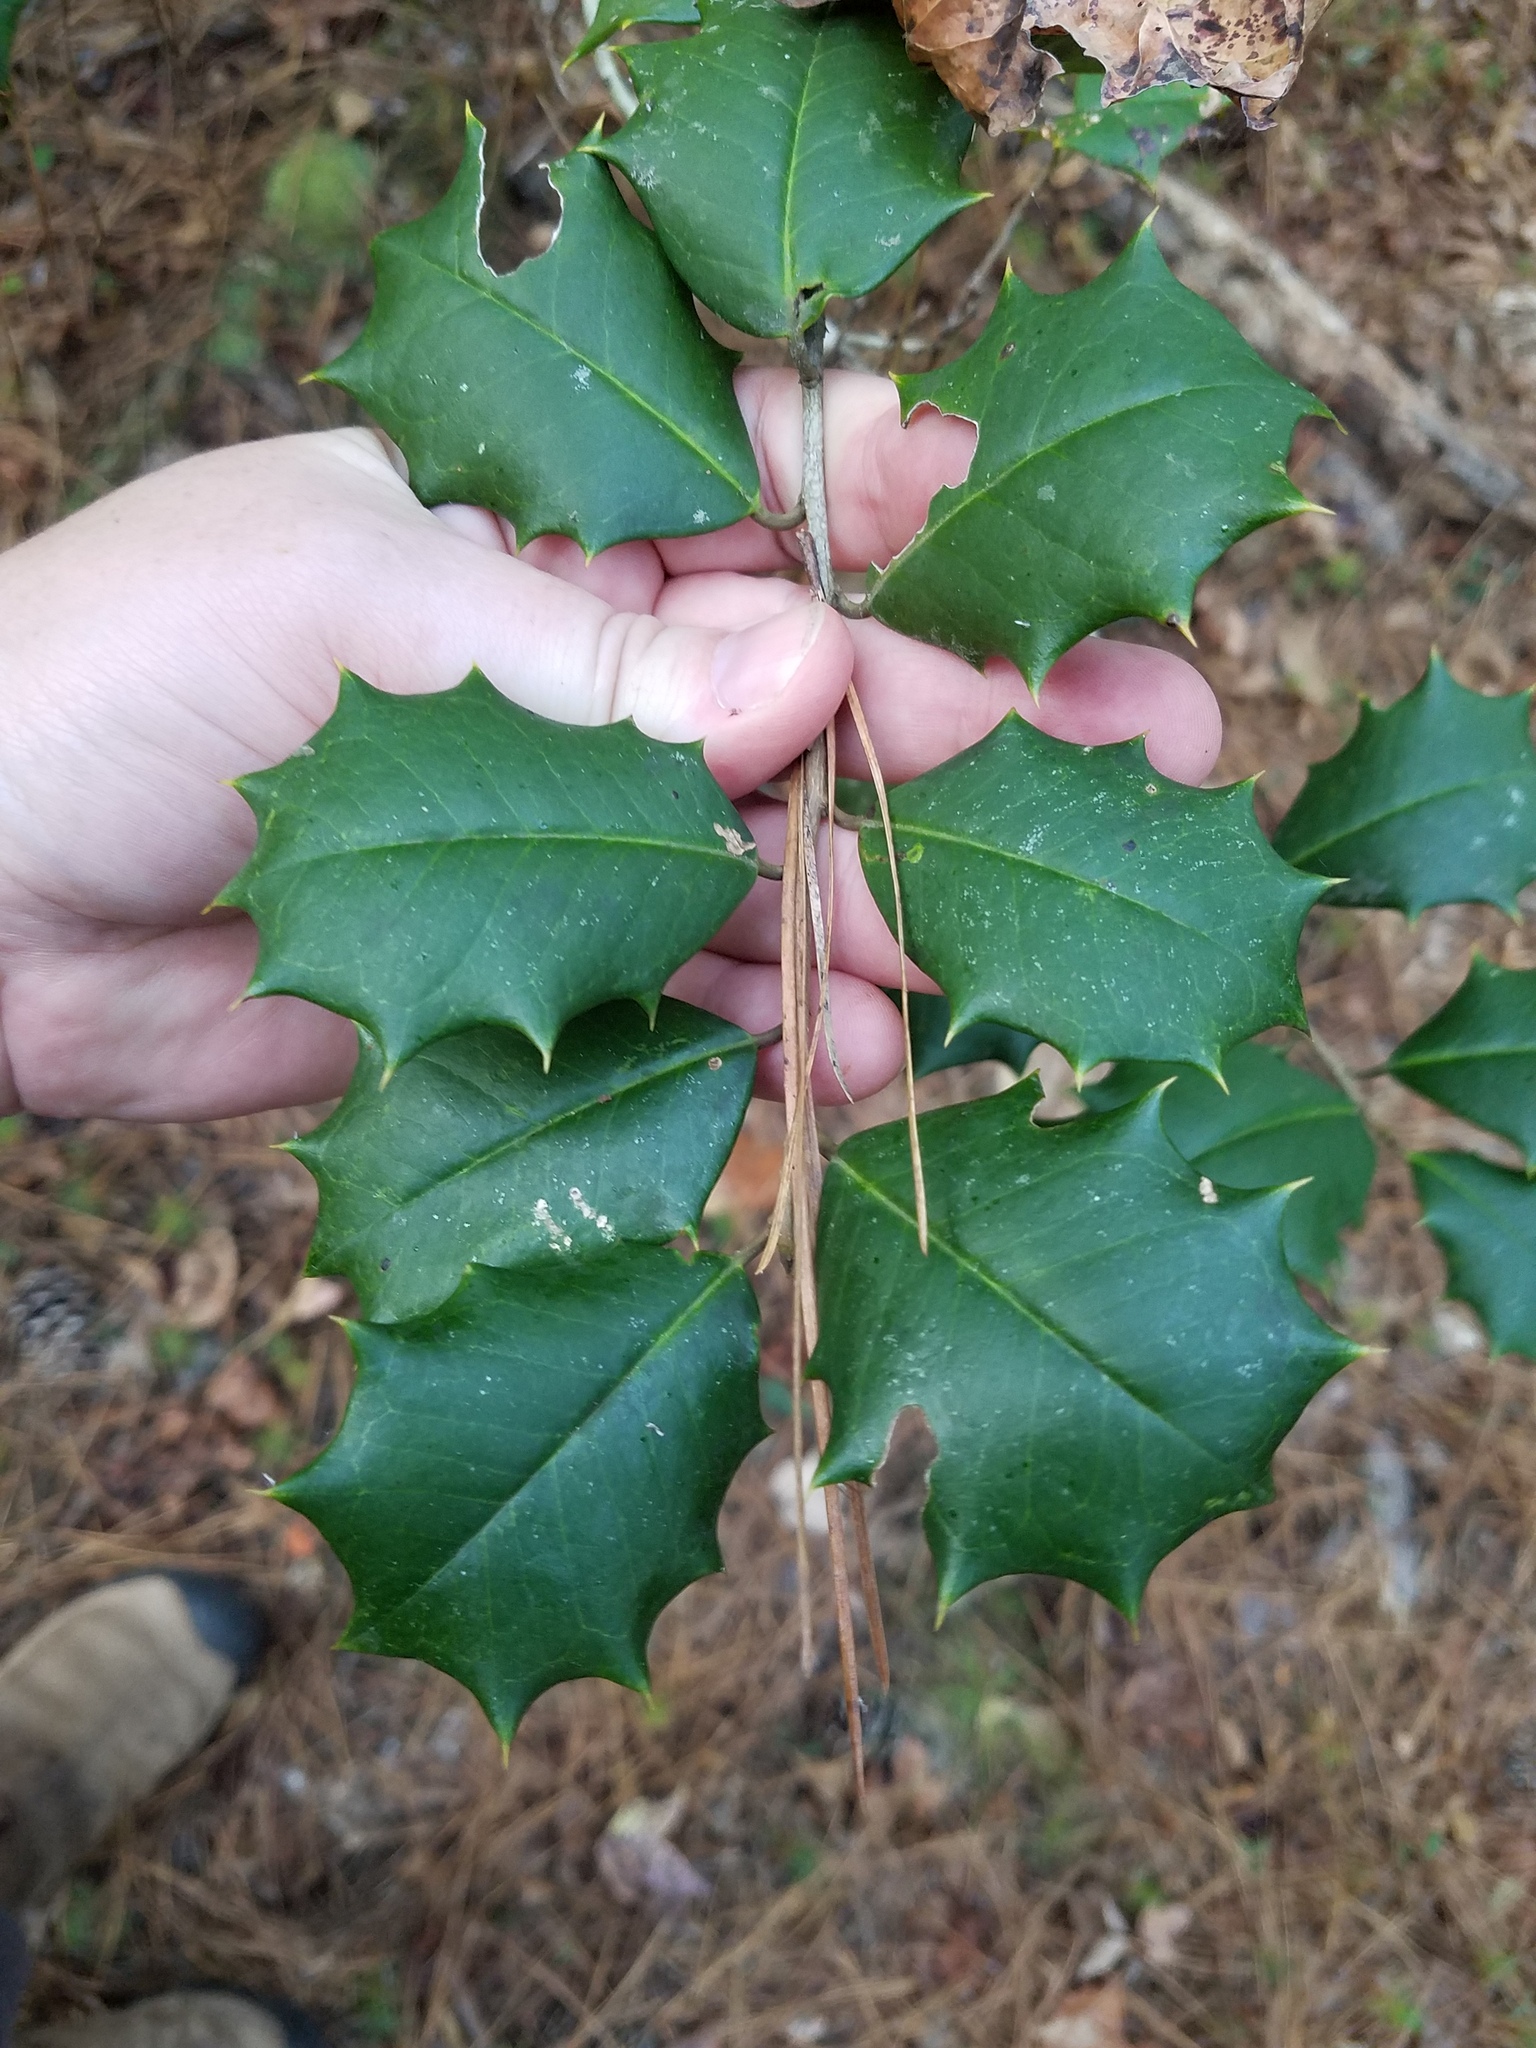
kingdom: Plantae
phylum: Tracheophyta
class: Magnoliopsida
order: Aquifoliales
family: Aquifoliaceae
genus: Ilex
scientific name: Ilex opaca
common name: American holly
